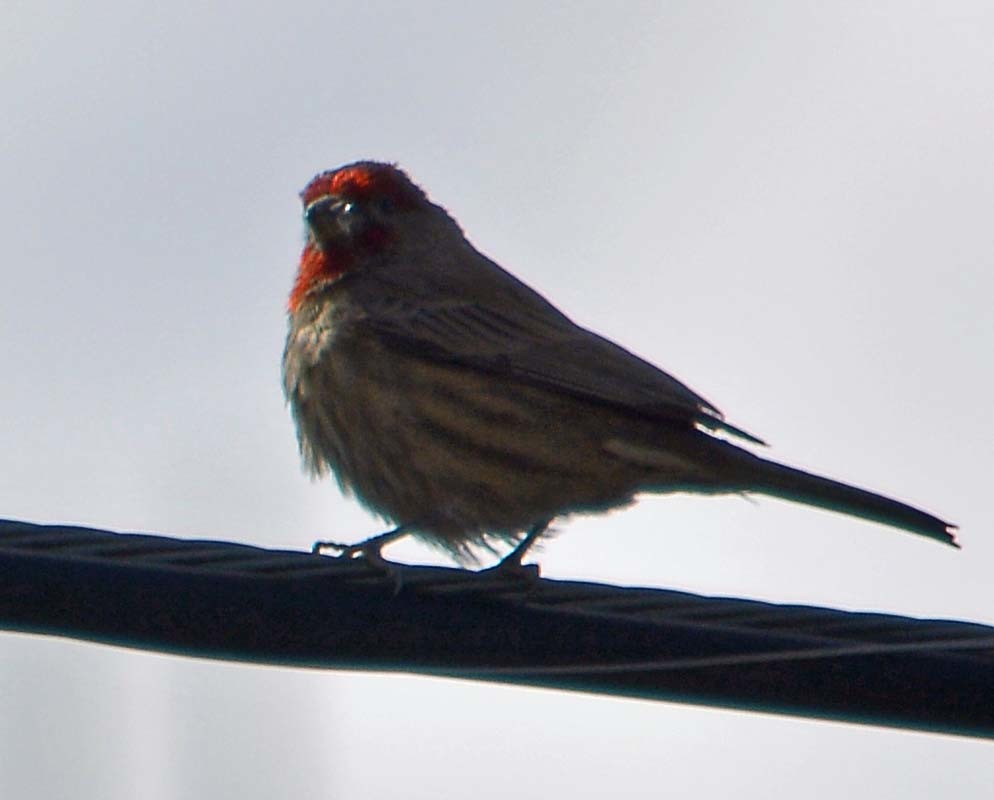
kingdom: Animalia
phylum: Chordata
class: Aves
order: Passeriformes
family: Fringillidae
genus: Haemorhous
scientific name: Haemorhous mexicanus
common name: House finch
